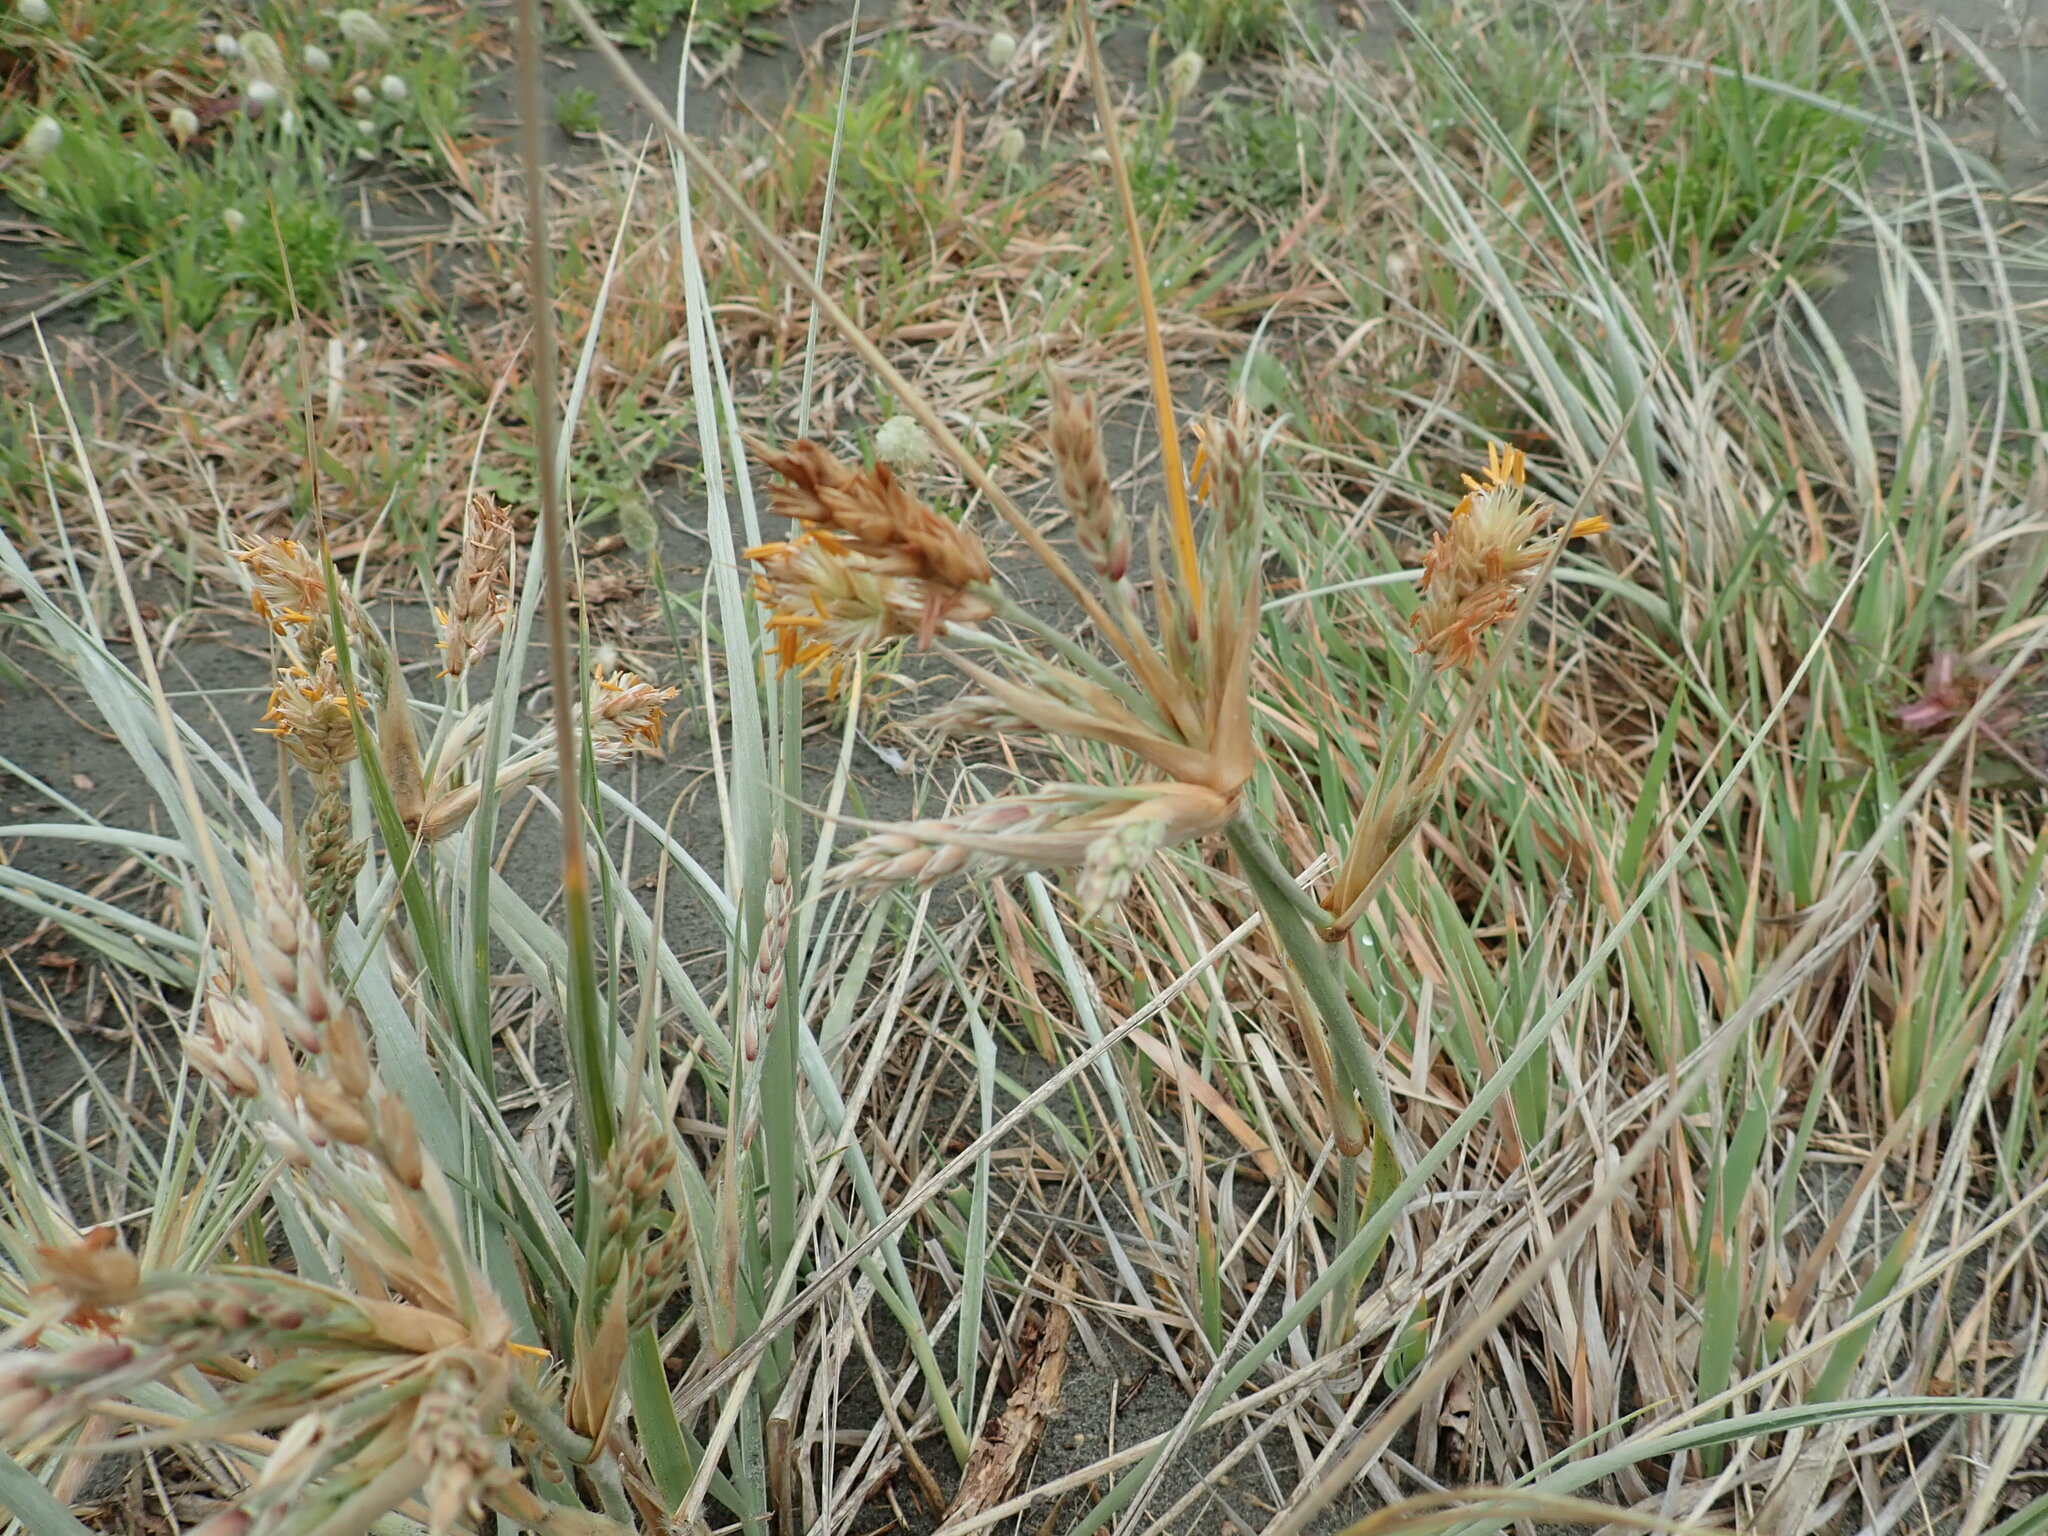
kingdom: Plantae
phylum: Tracheophyta
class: Liliopsida
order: Poales
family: Poaceae
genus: Spinifex
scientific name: Spinifex sericeus
